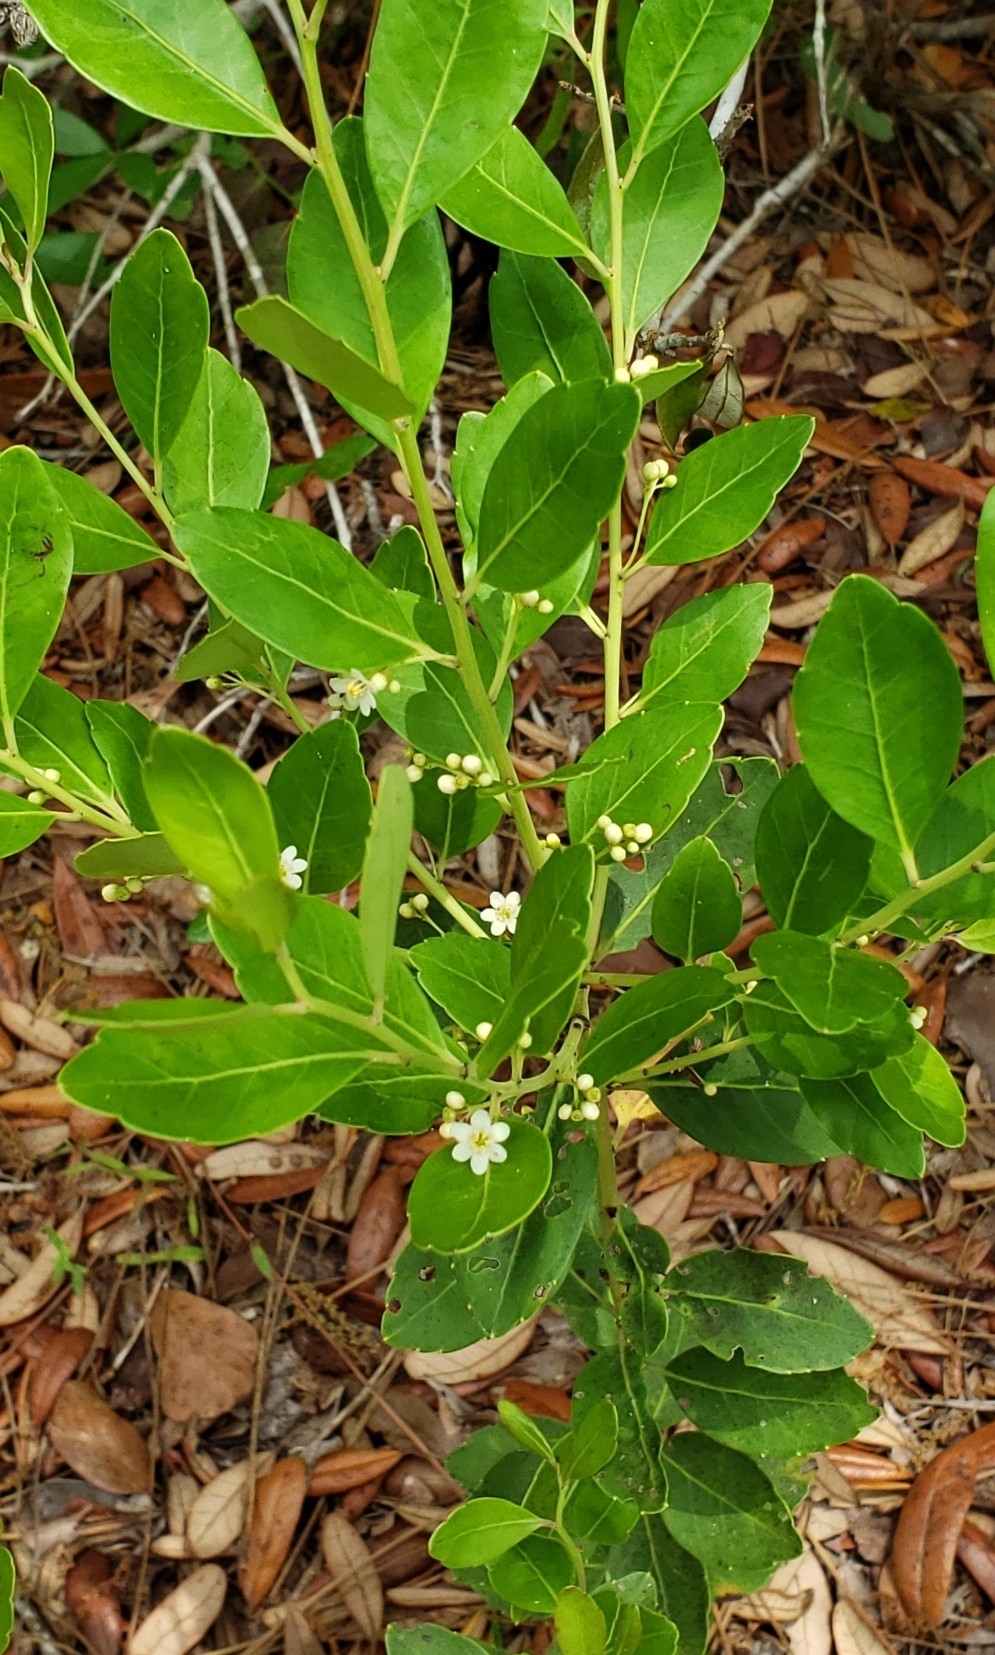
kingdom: Plantae
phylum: Tracheophyta
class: Magnoliopsida
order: Aquifoliales
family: Aquifoliaceae
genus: Ilex
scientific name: Ilex glabra
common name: Bitter gallberry
